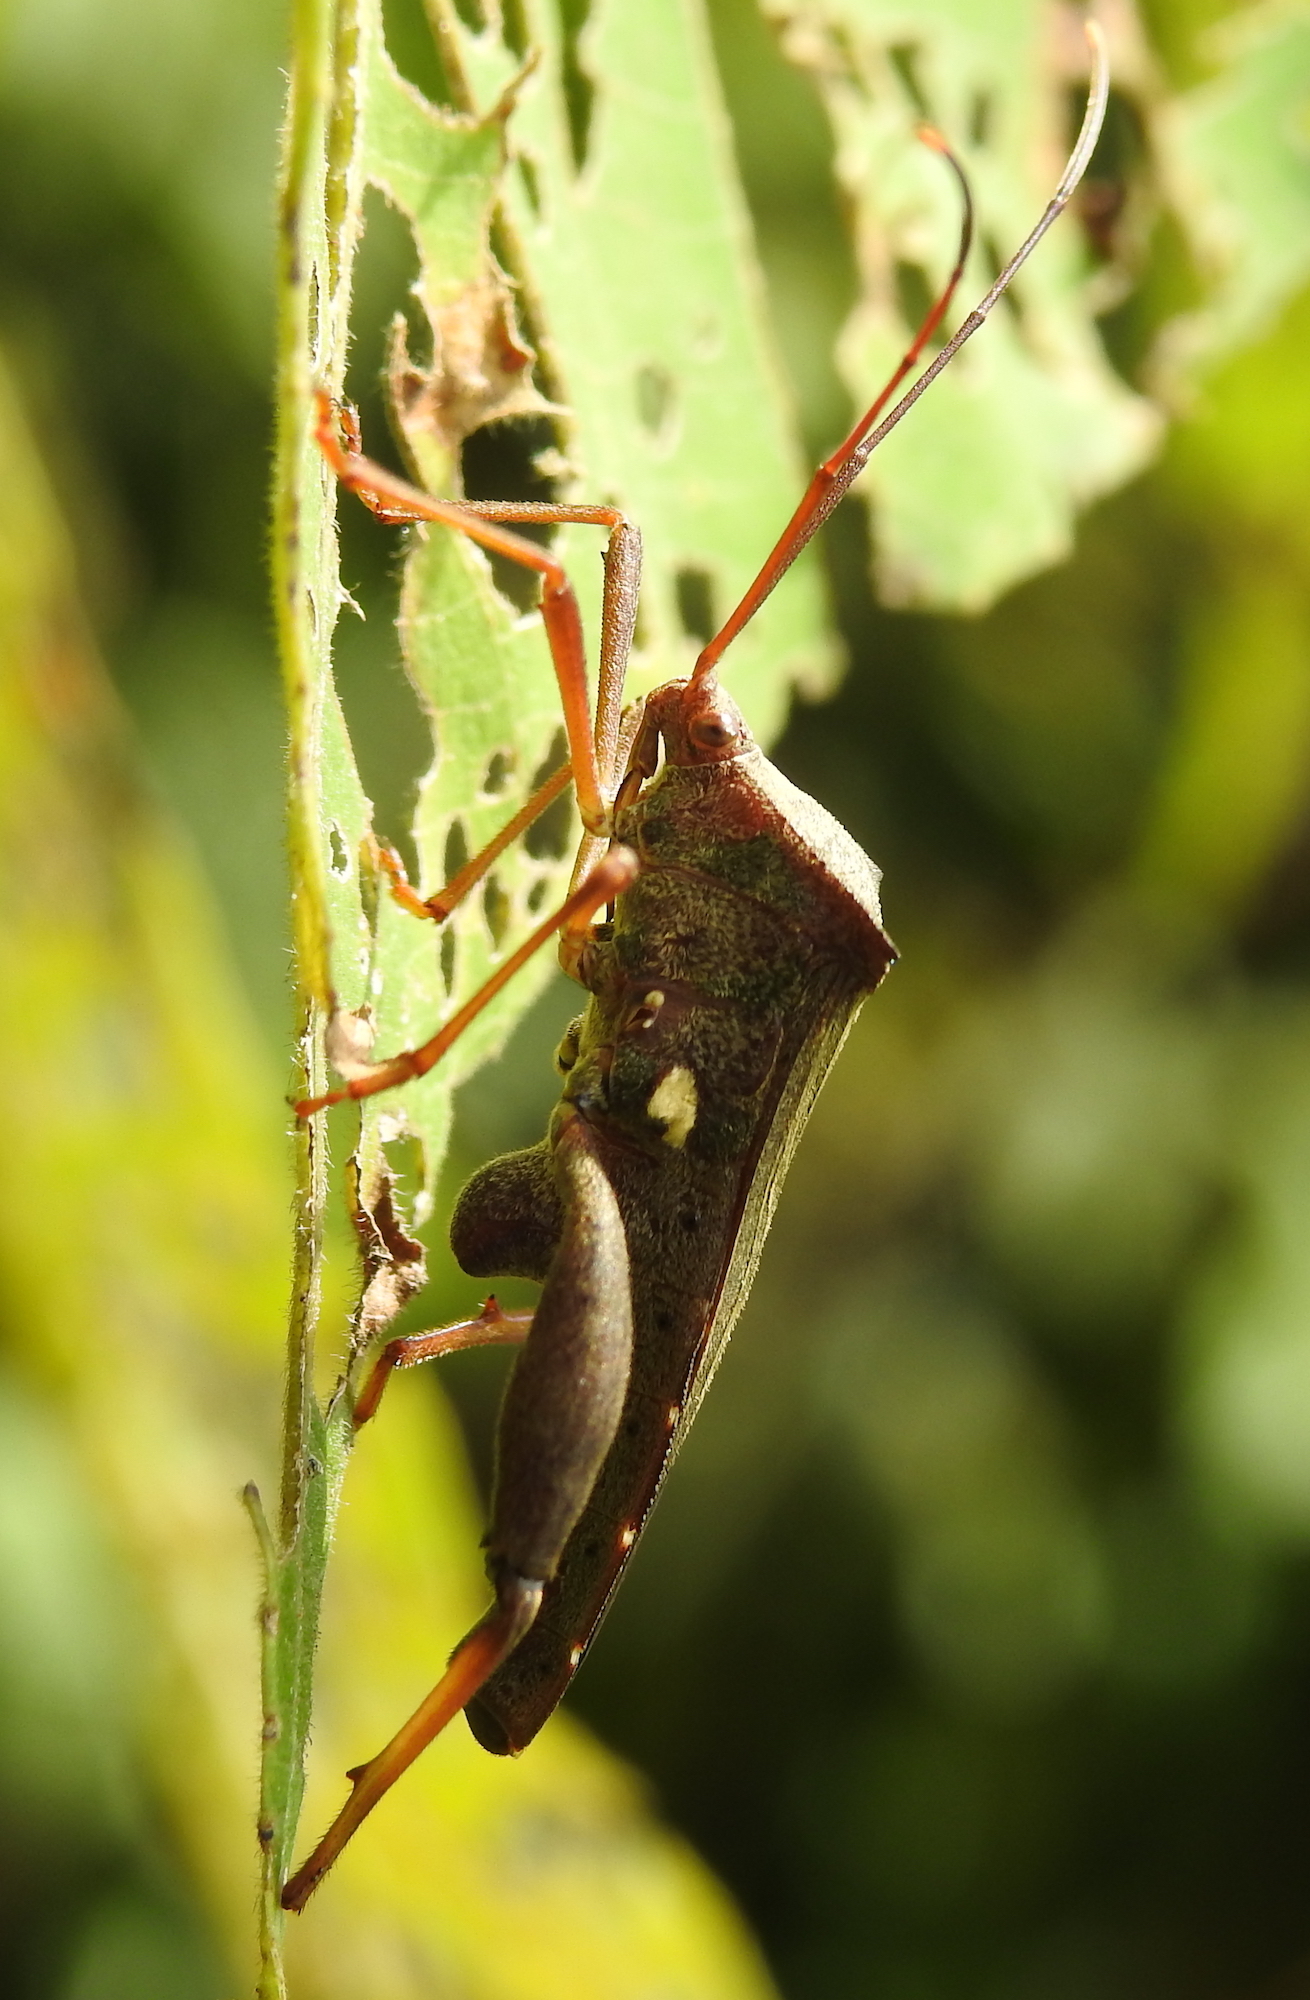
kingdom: Animalia
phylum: Arthropoda
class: Insecta
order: Hemiptera
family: Coreidae
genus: Mictis
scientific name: Mictis longicornis
